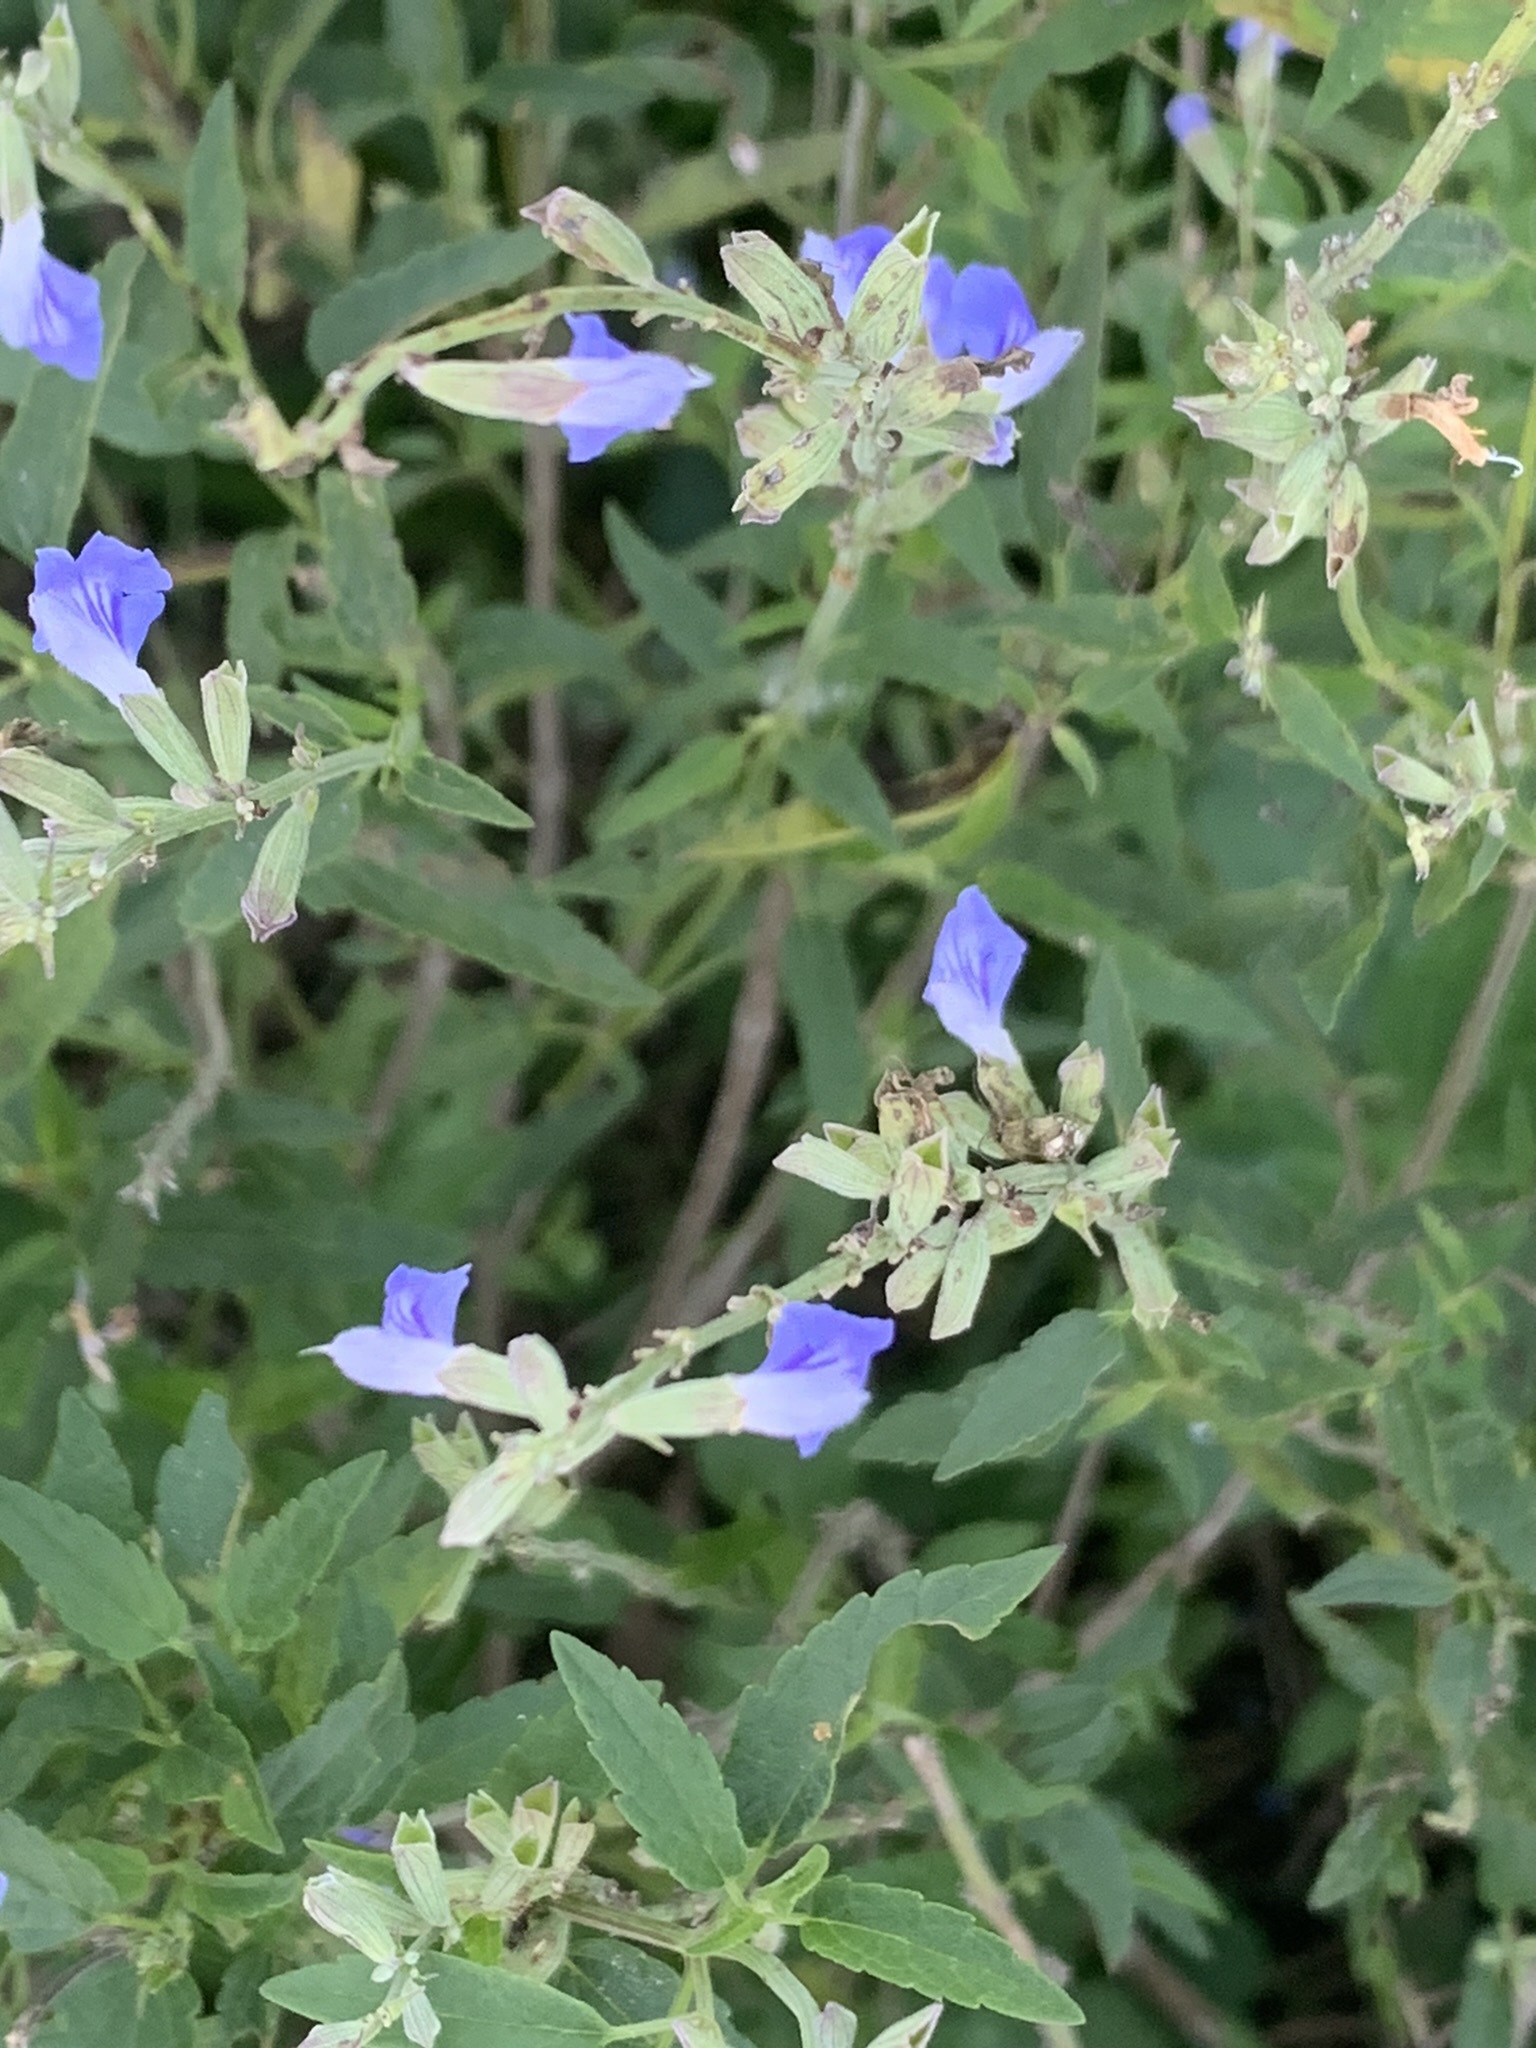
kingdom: Plantae
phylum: Tracheophyta
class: Magnoliopsida
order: Lamiales
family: Lamiaceae
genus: Salvia
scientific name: Salvia pallida
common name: Pale sage
